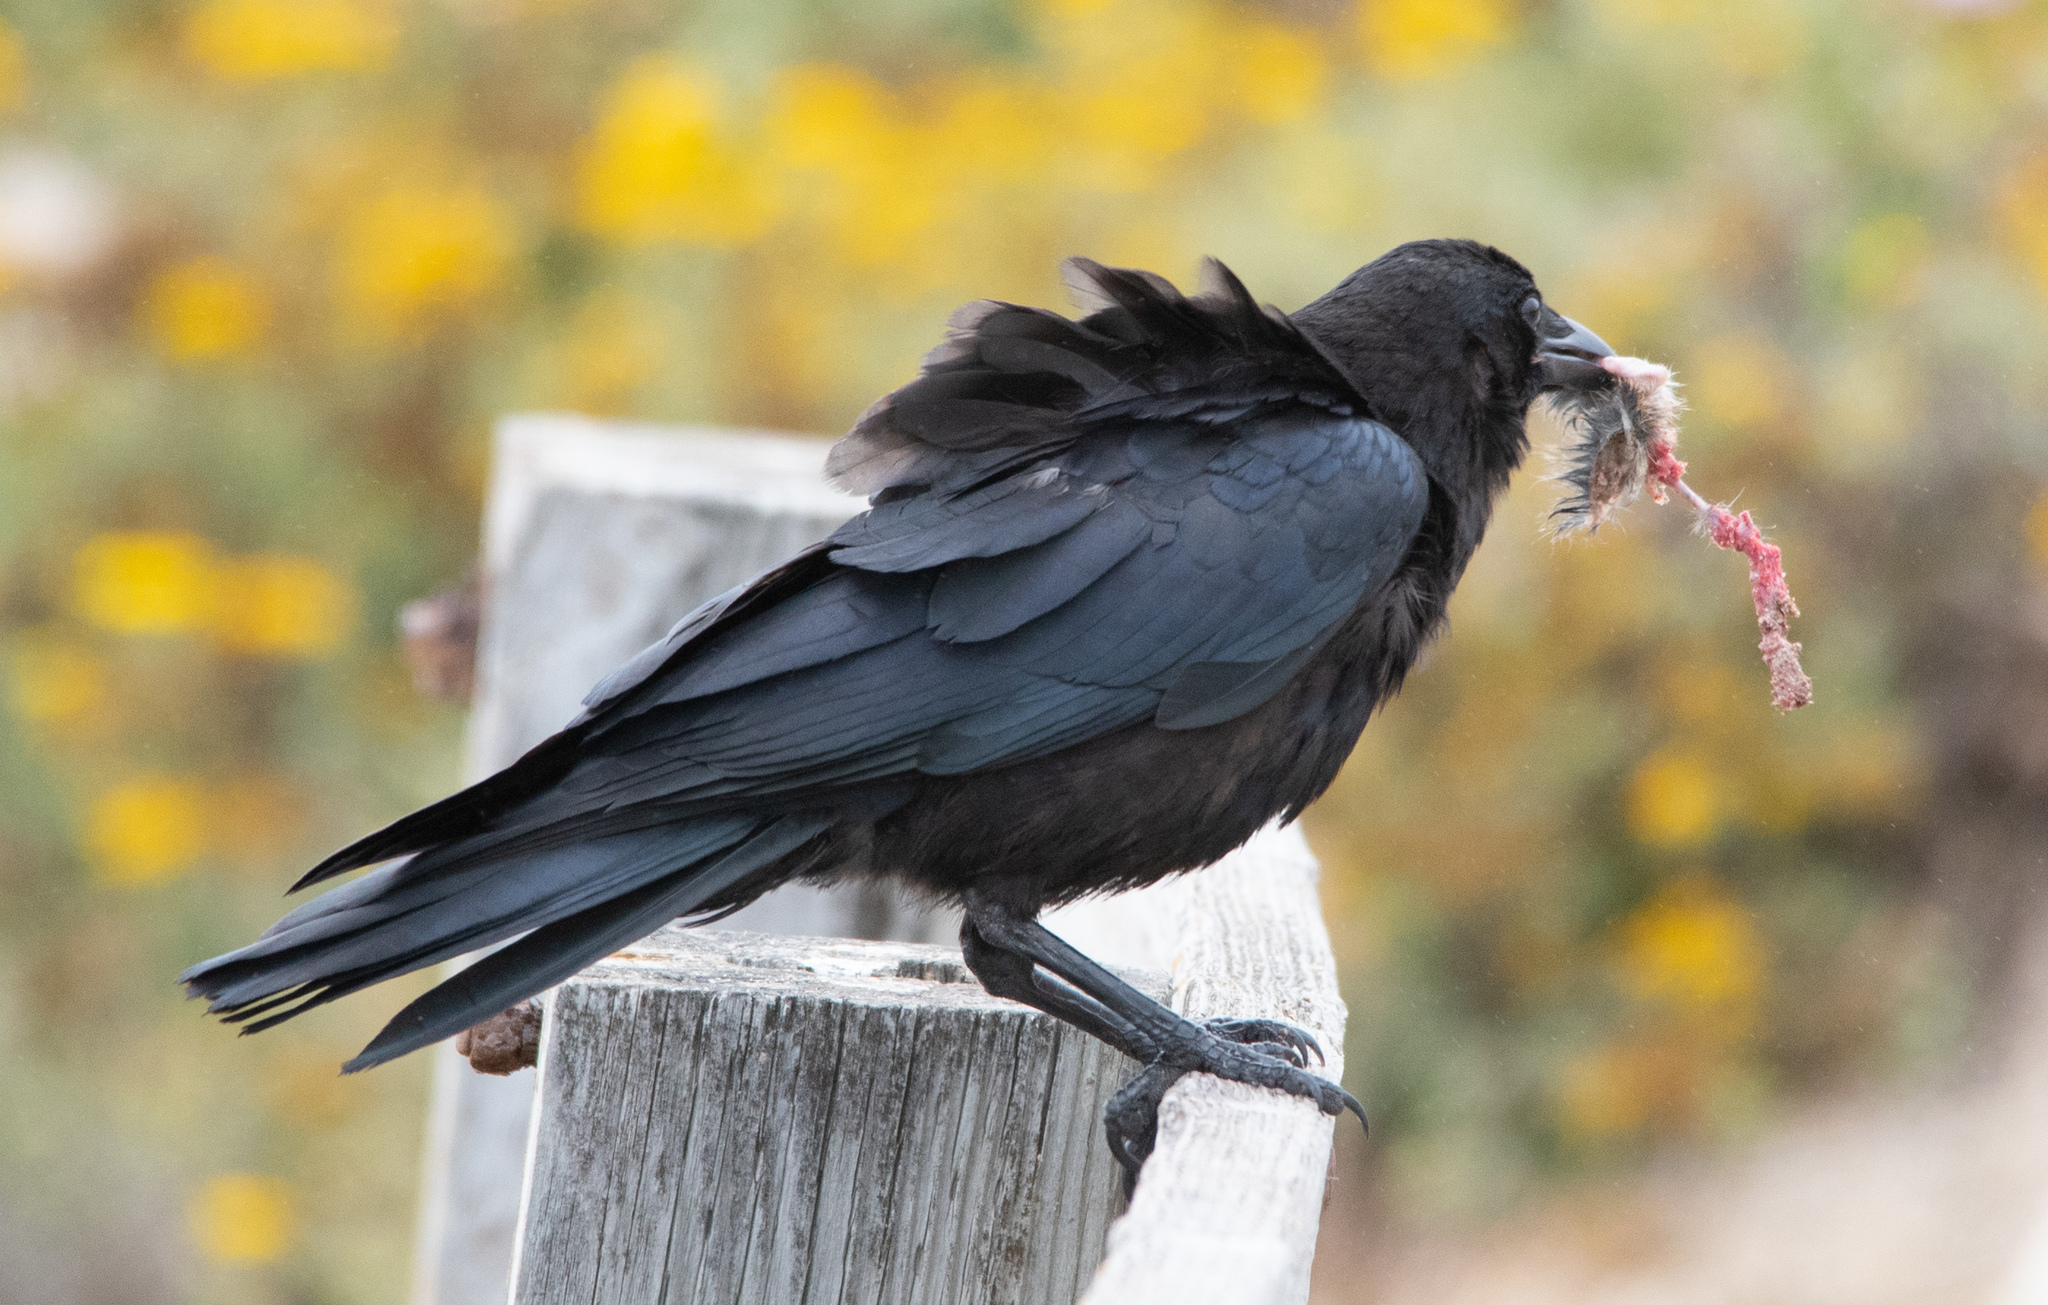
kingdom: Animalia
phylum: Chordata
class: Aves
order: Passeriformes
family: Corvidae
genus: Corvus
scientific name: Corvus brachyrhynchos
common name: American crow
